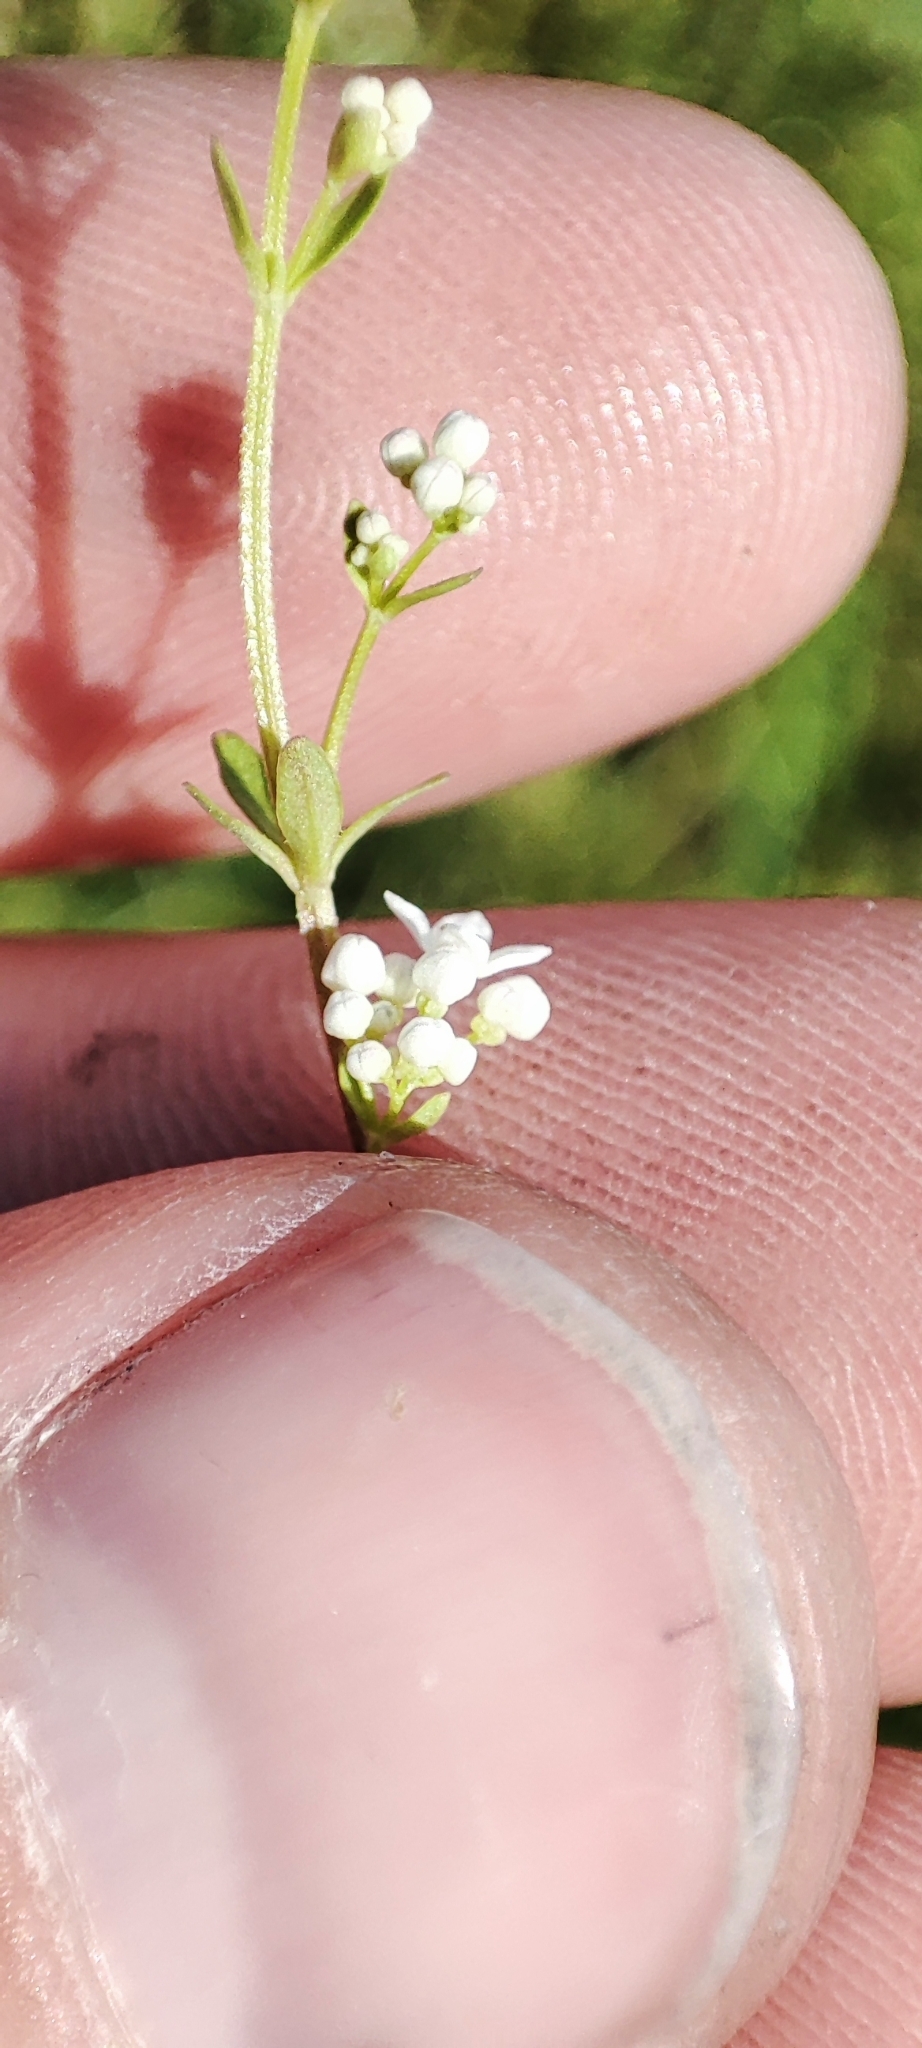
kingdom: Plantae
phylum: Tracheophyta
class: Magnoliopsida
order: Gentianales
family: Rubiaceae
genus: Galium
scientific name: Galium palustre
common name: Common marsh-bedstraw
